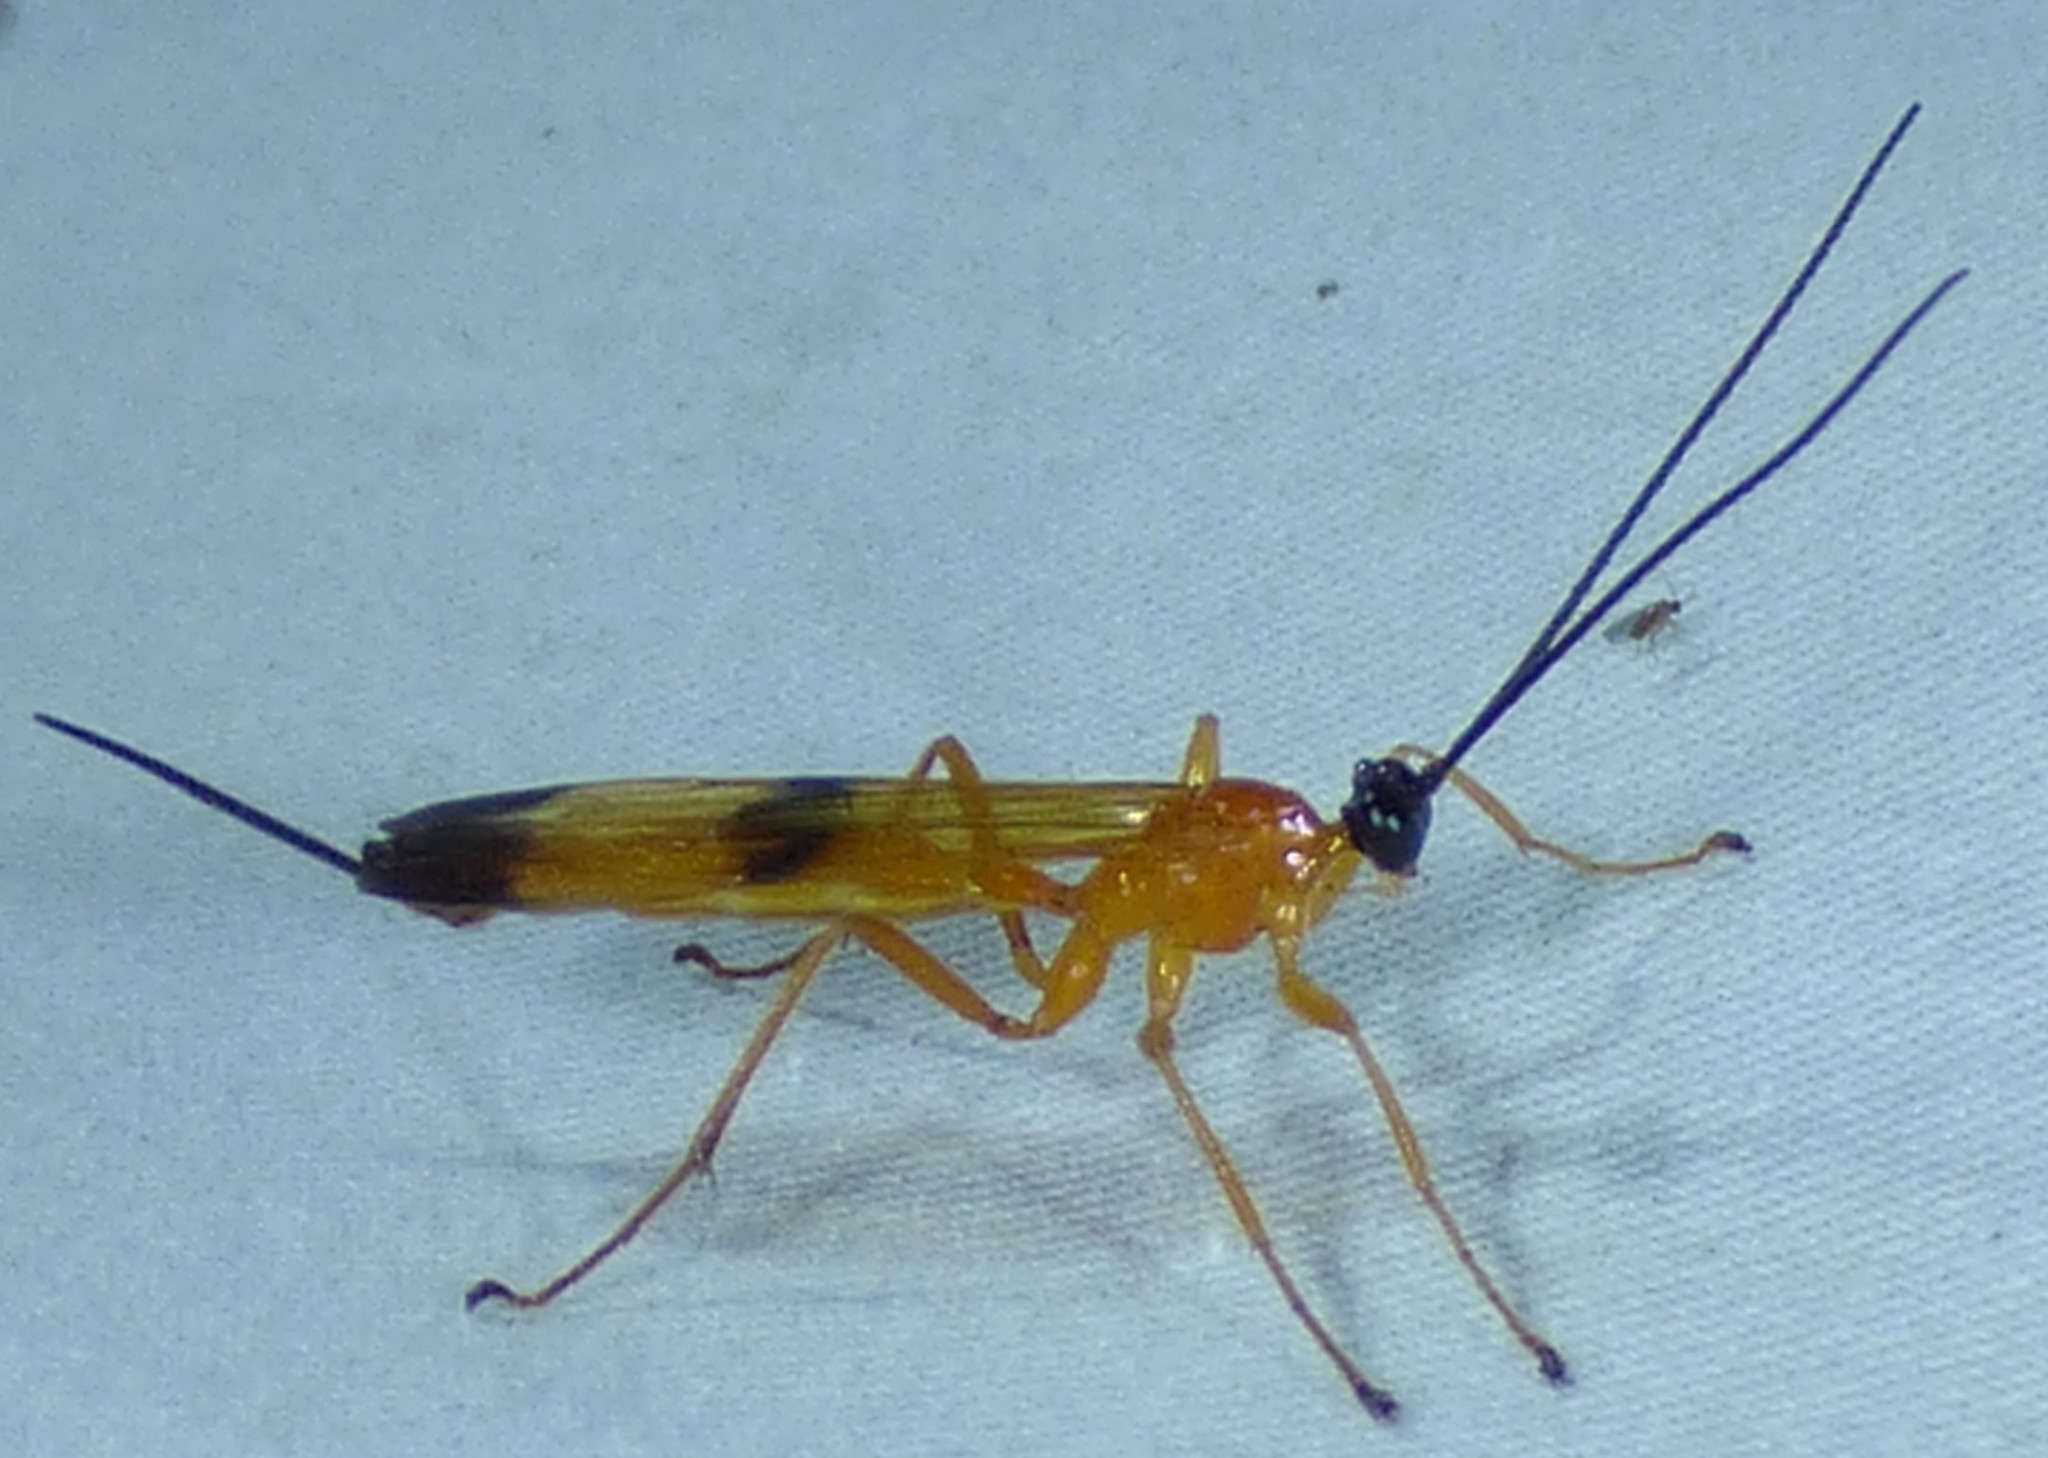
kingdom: Animalia
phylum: Arthropoda
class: Insecta
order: Hymenoptera
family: Ichneumonidae
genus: Acrotaphus
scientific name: Acrotaphus wiltii
